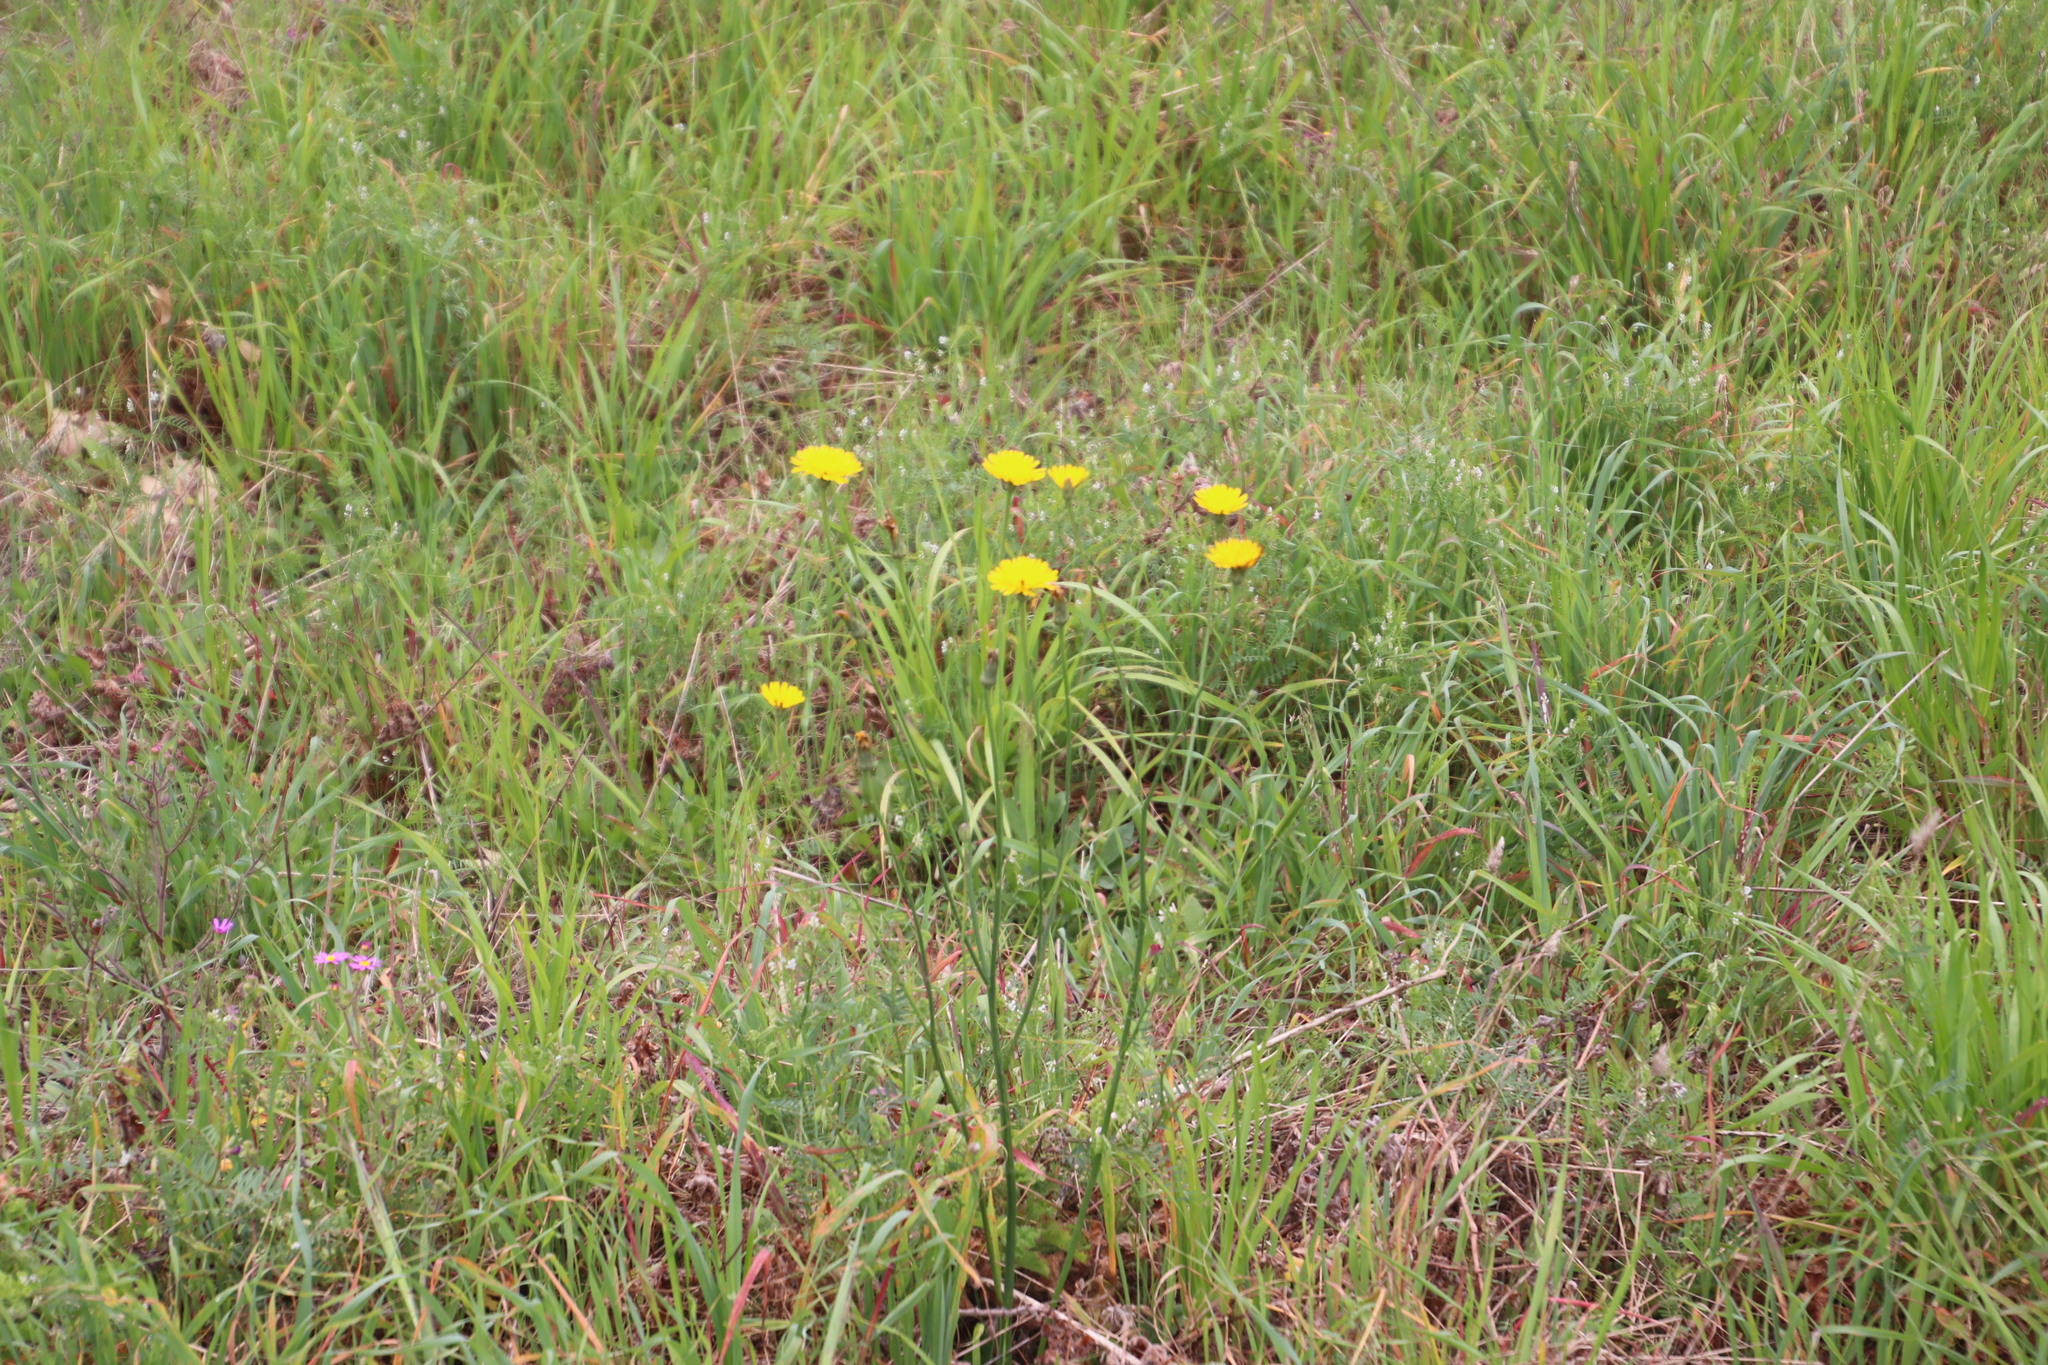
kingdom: Plantae
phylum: Tracheophyta
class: Magnoliopsida
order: Asterales
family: Asteraceae
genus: Hypochaeris
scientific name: Hypochaeris radicata
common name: Flatweed
